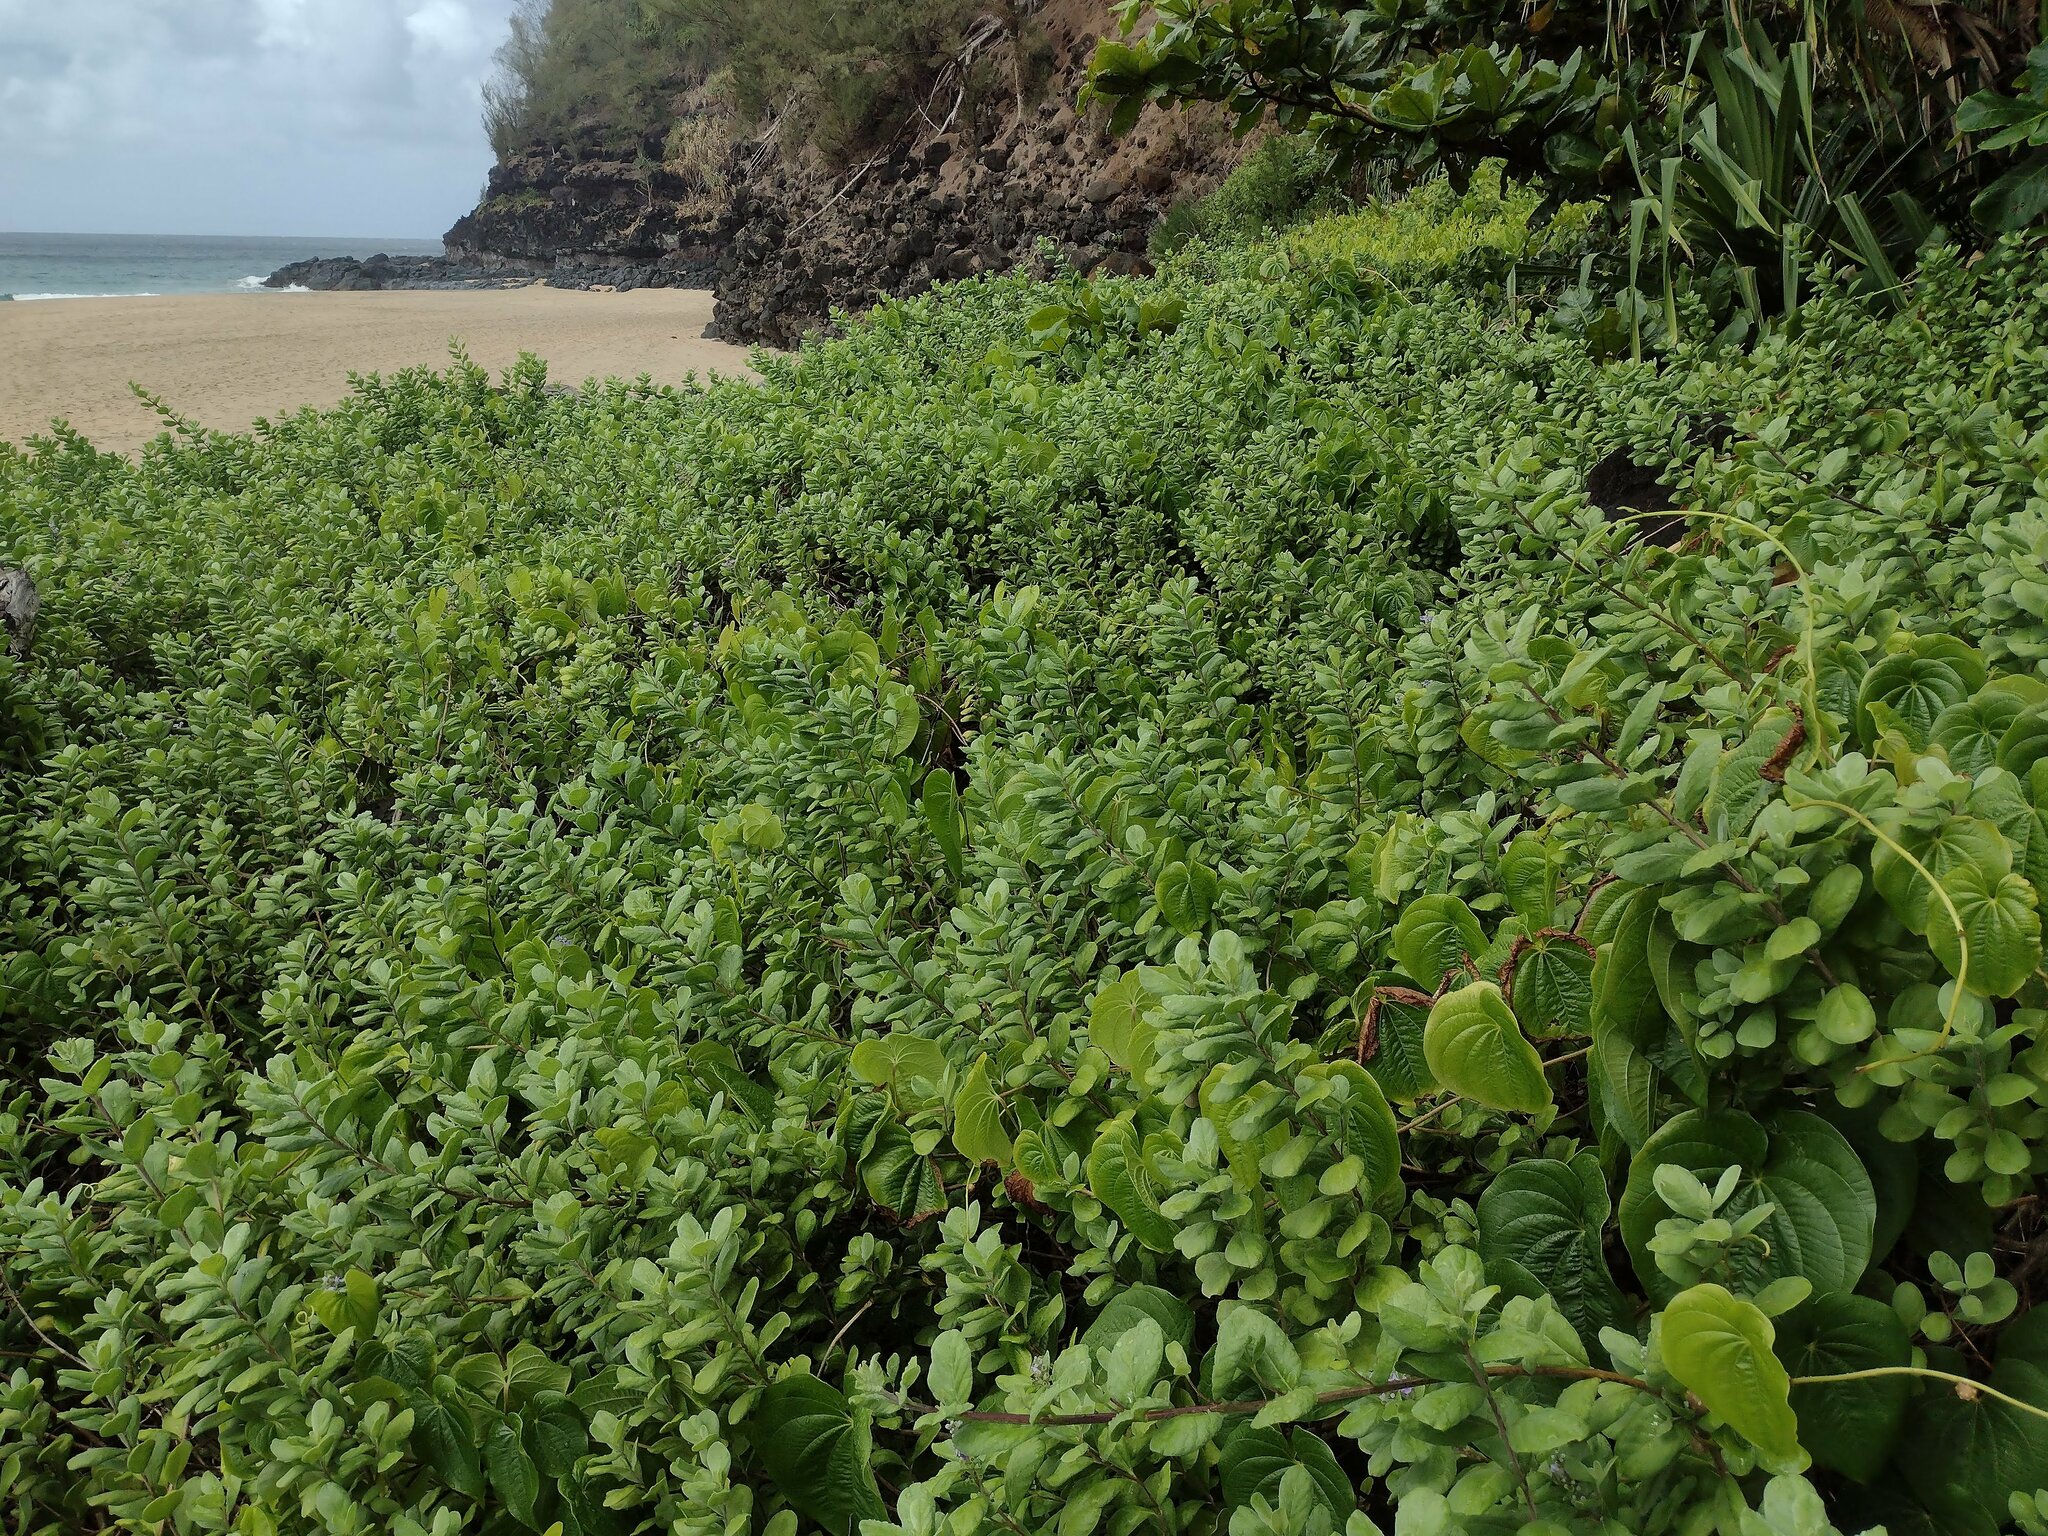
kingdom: Plantae
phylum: Tracheophyta
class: Magnoliopsida
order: Lamiales
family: Lamiaceae
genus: Vitex
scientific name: Vitex rotundifolia
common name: Beach vitex
